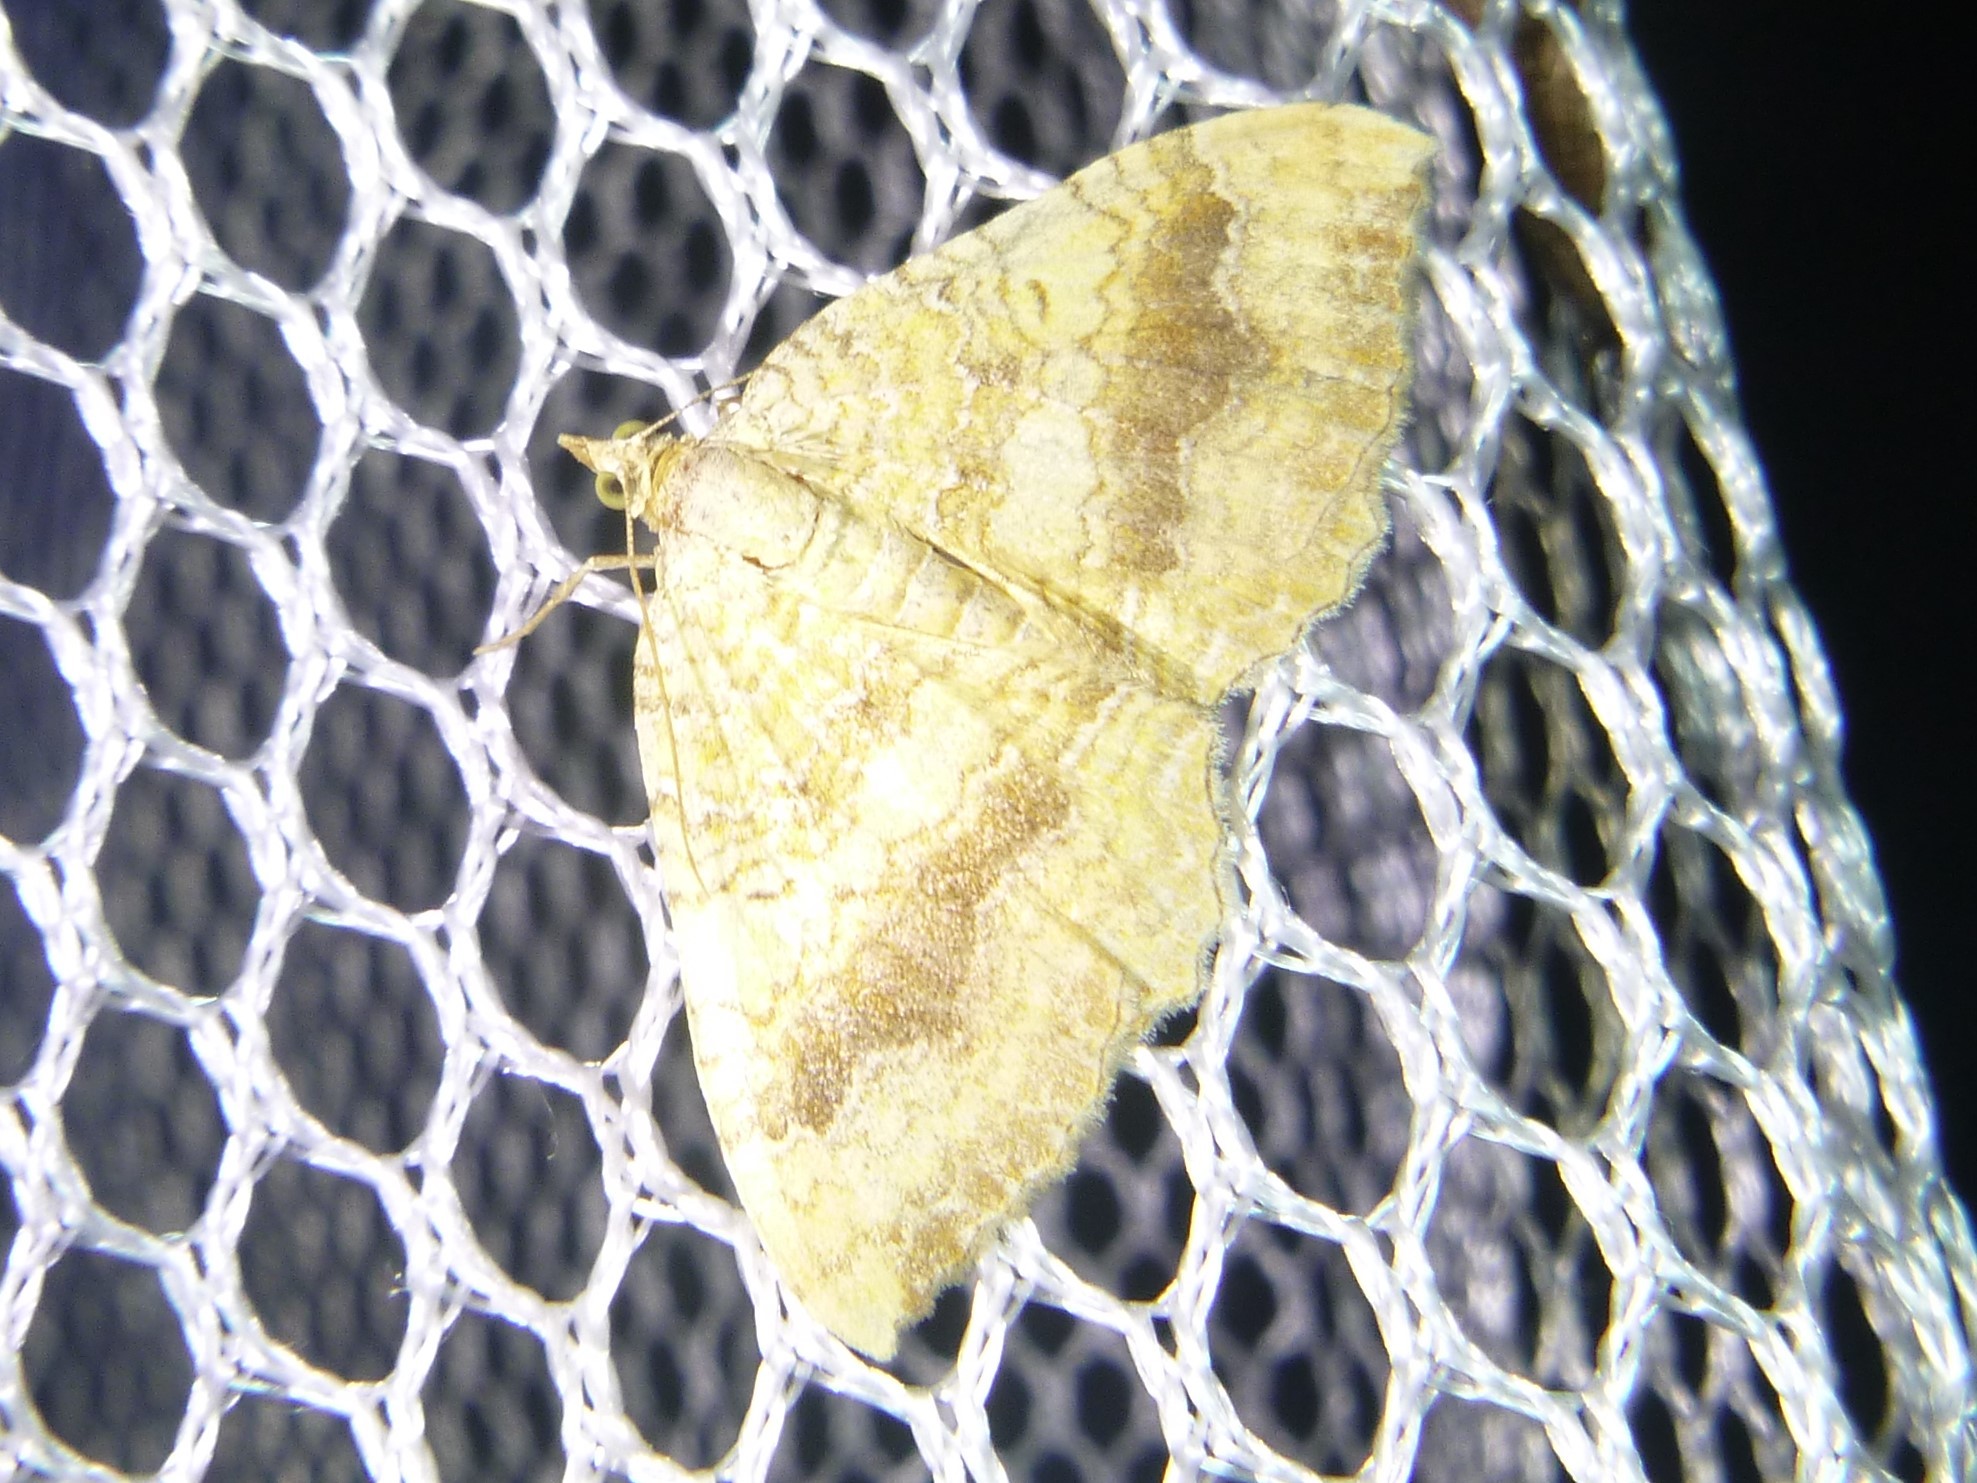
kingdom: Animalia
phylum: Arthropoda
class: Insecta
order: Lepidoptera
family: Geometridae
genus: Camptogramma
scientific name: Camptogramma bilineata
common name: Yellow shell
